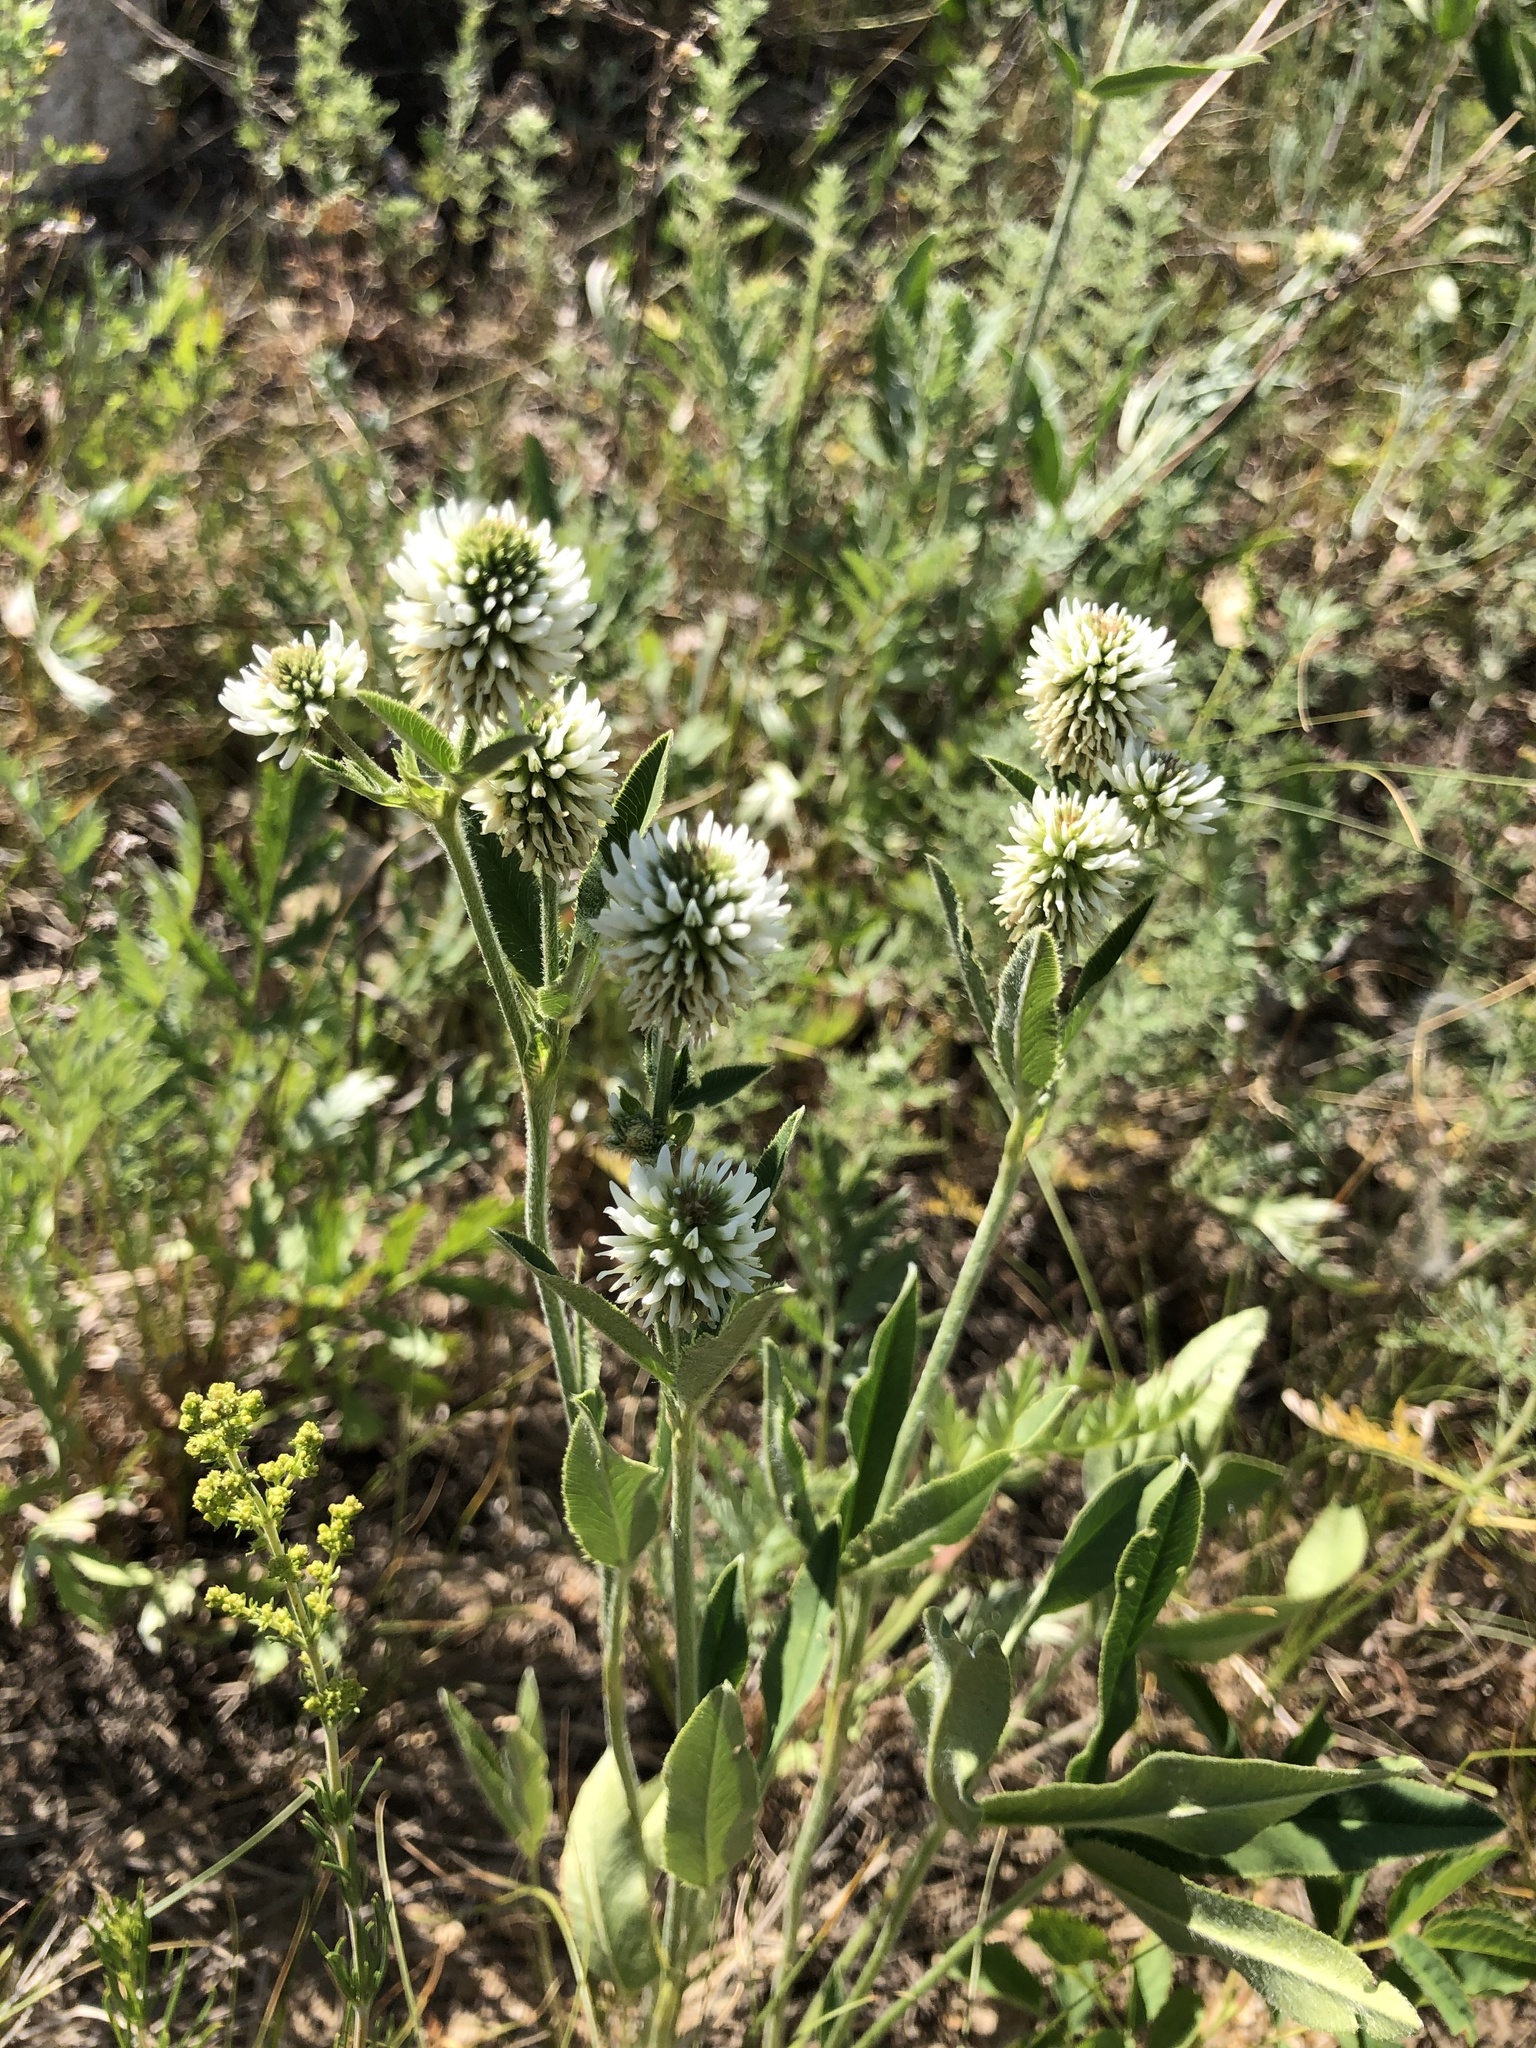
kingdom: Plantae
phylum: Tracheophyta
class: Magnoliopsida
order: Fabales
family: Fabaceae
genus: Trifolium
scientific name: Trifolium montanum
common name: Mountain clover
